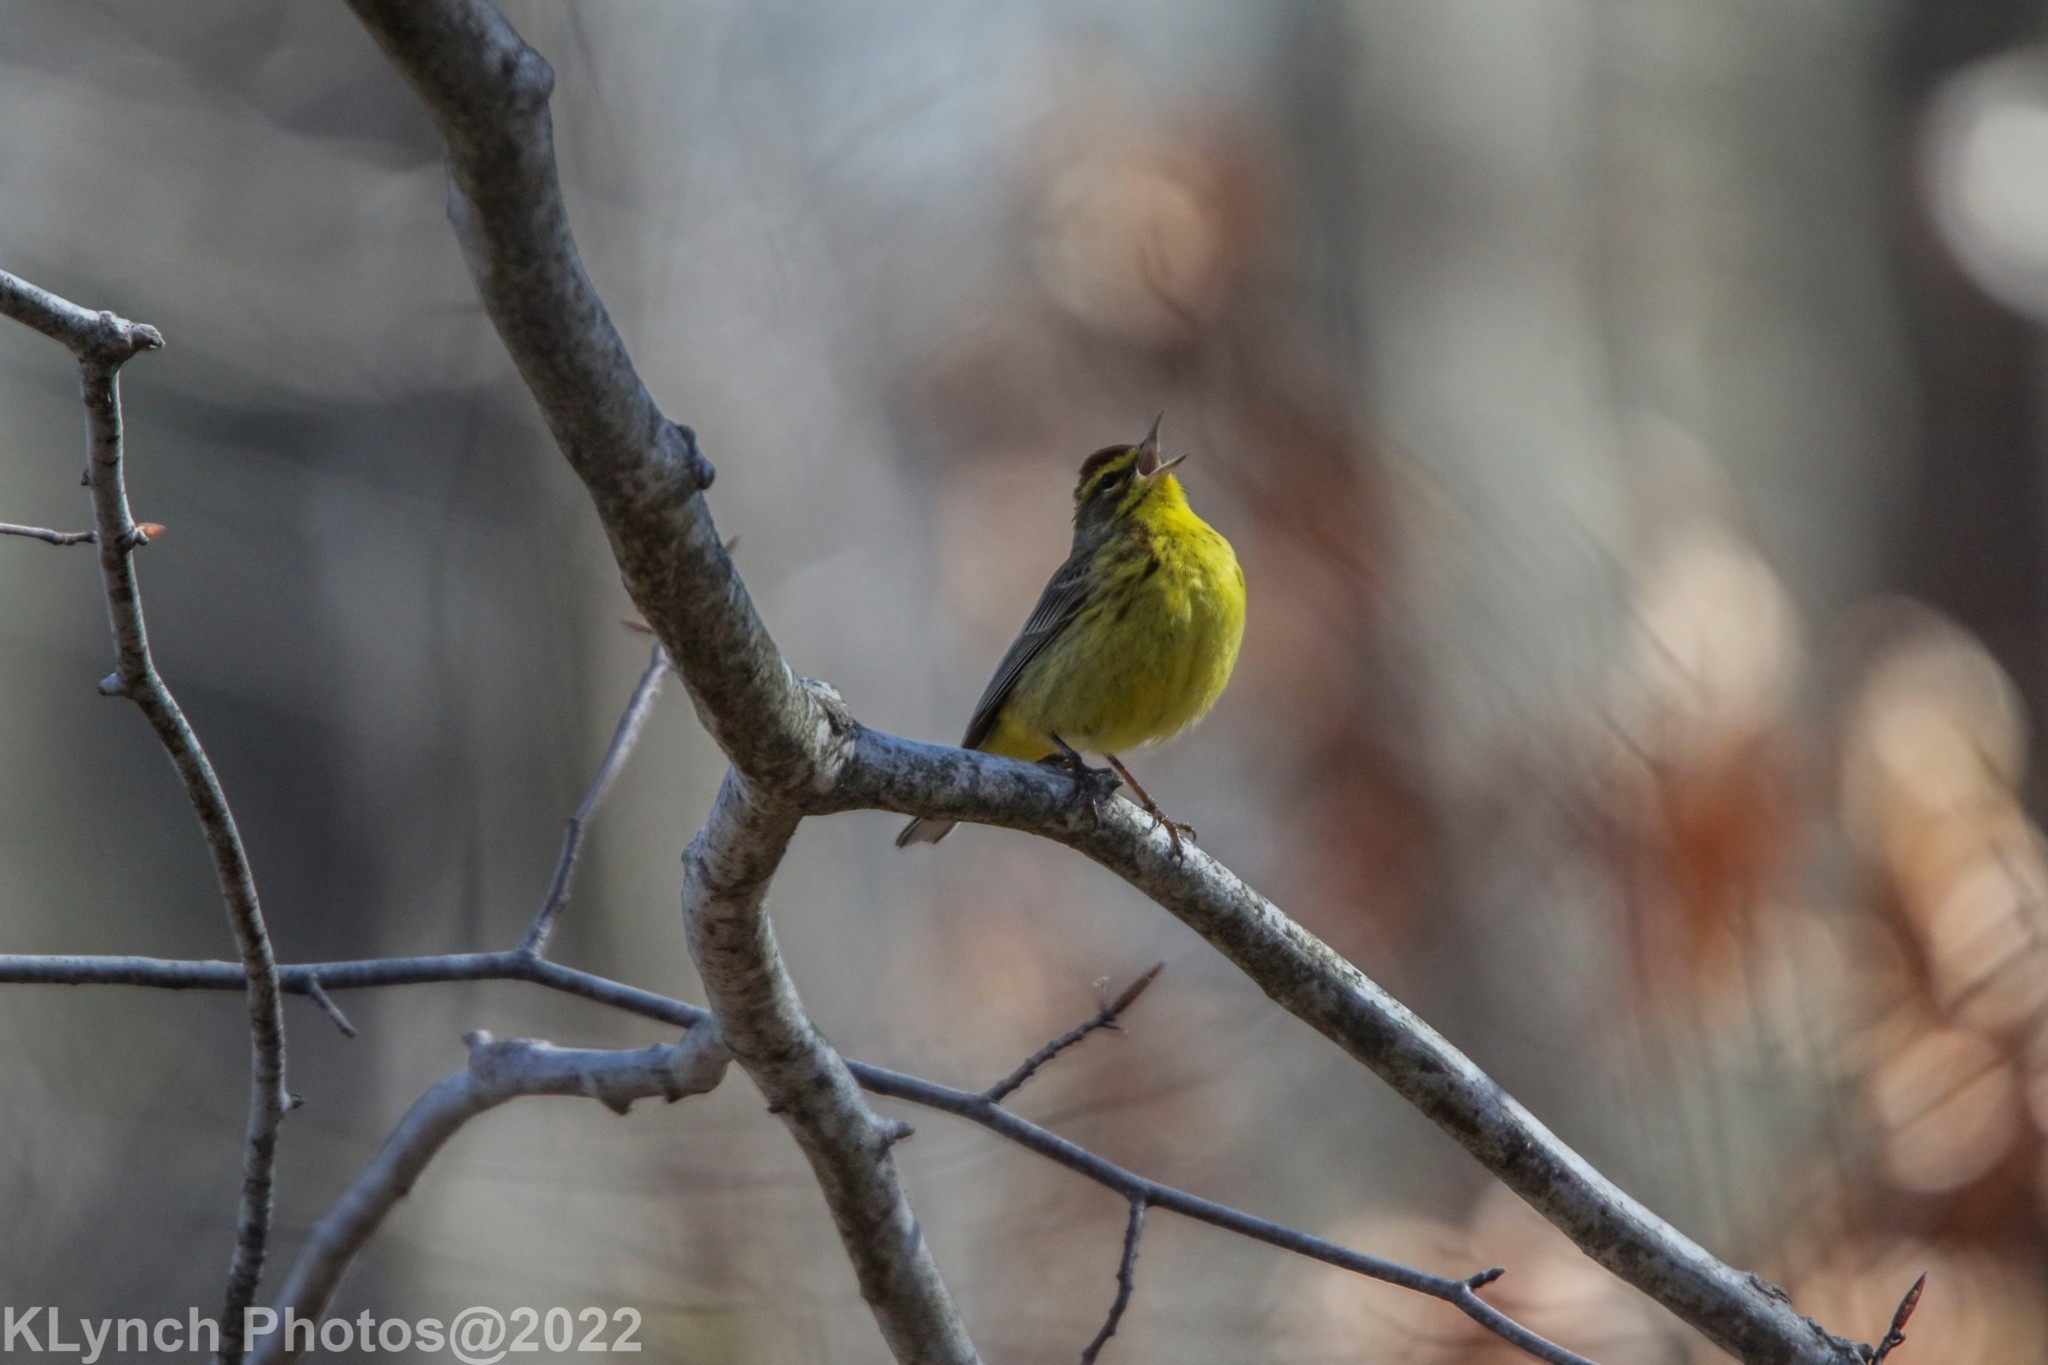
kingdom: Animalia
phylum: Chordata
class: Aves
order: Passeriformes
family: Parulidae
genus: Setophaga
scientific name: Setophaga palmarum
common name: Palm warbler
